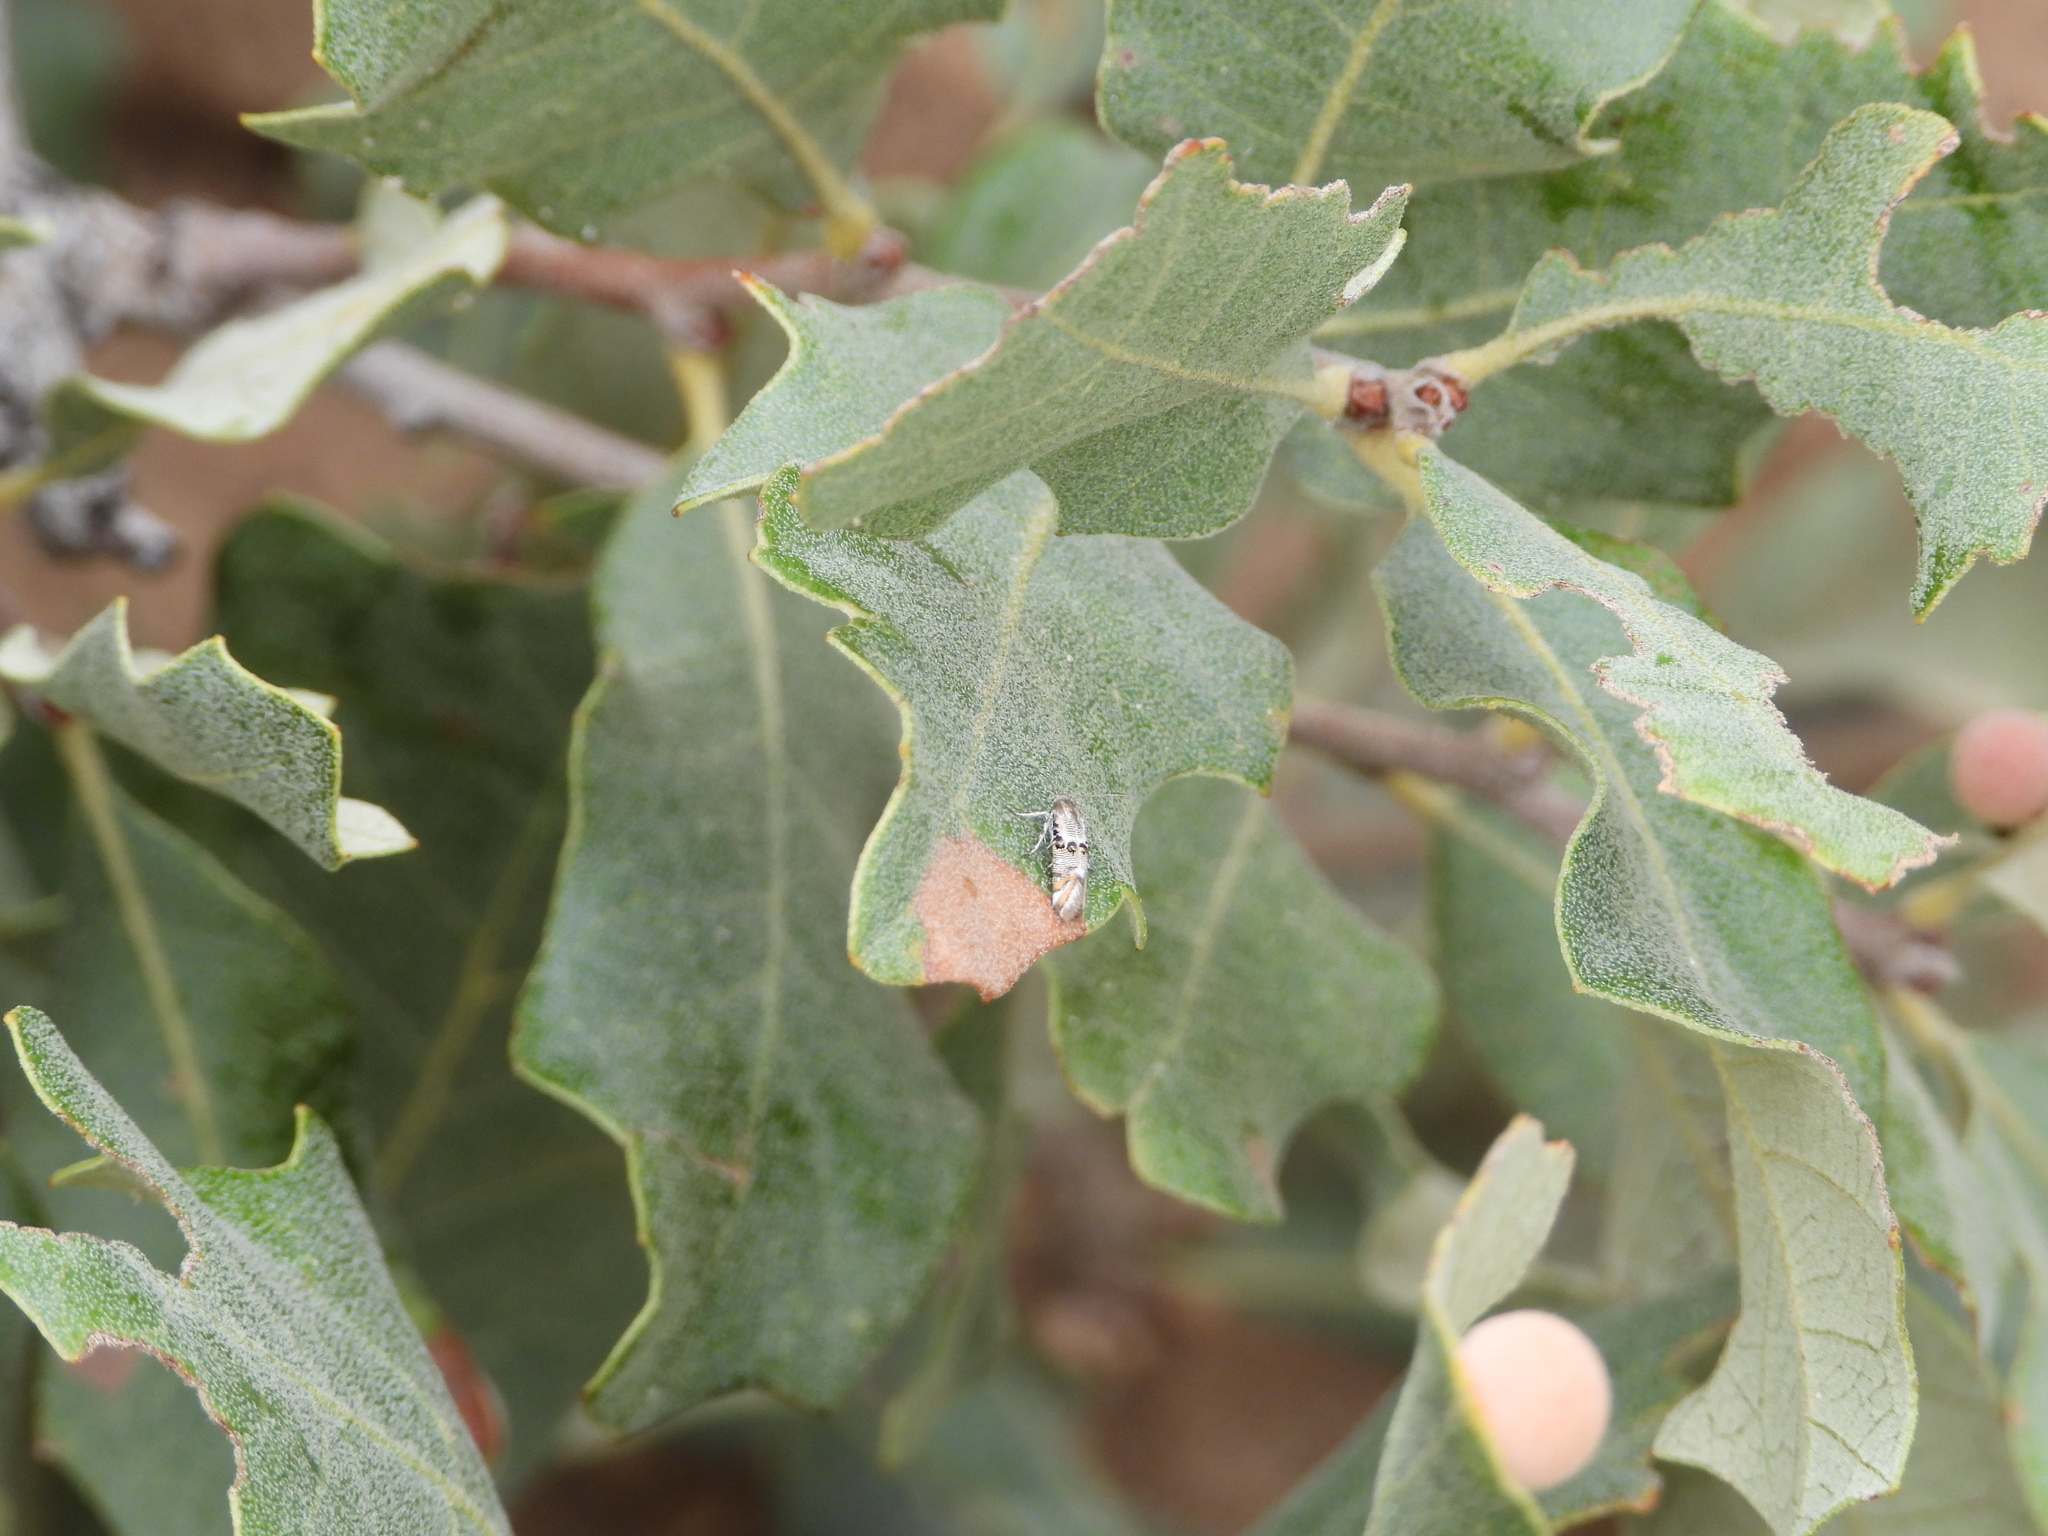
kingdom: Plantae
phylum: Tracheophyta
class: Magnoliopsida
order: Fagales
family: Fagaceae
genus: Quercus
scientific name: Quercus havardii
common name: Shinnery oak
